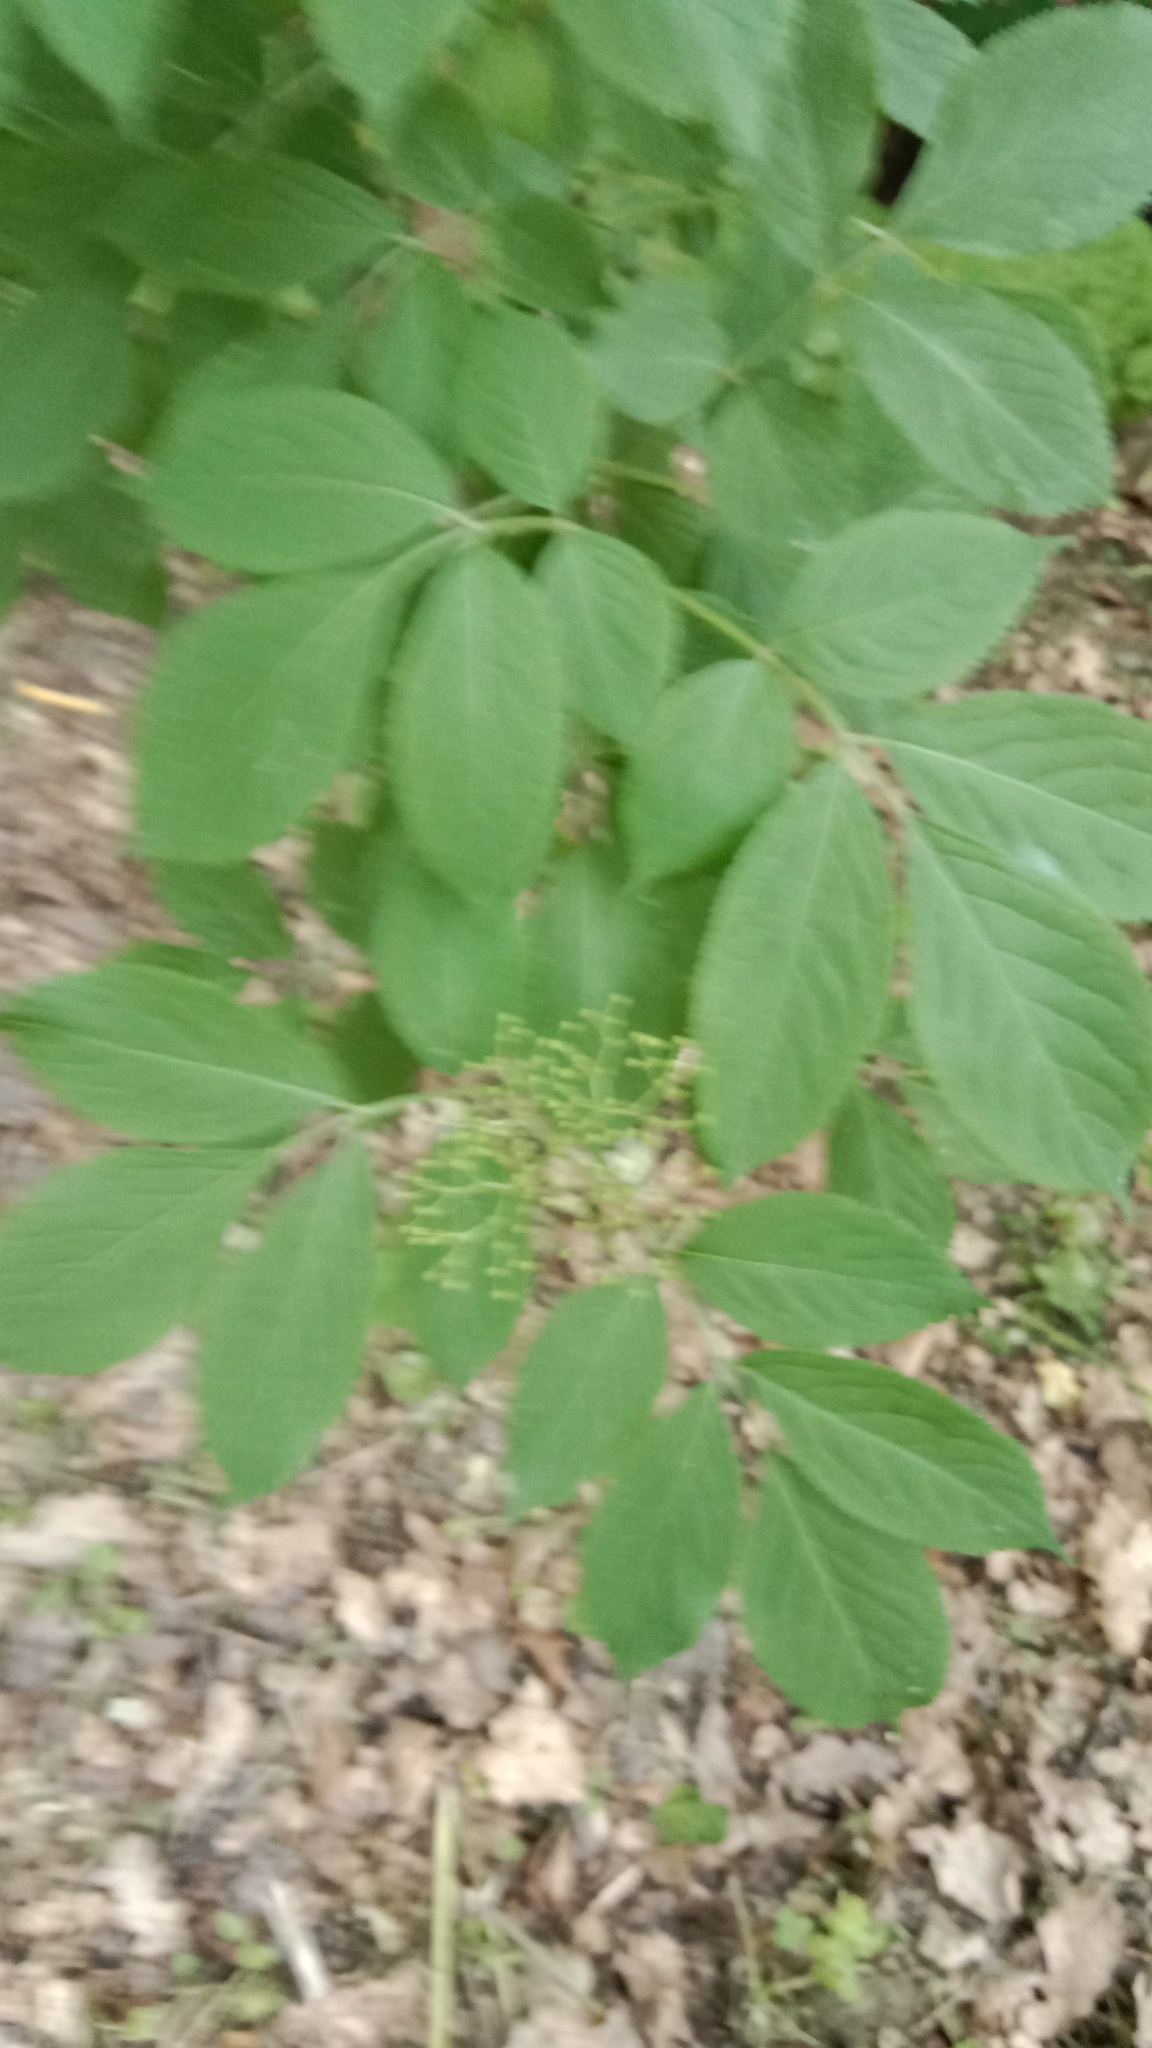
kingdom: Plantae
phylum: Tracheophyta
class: Magnoliopsida
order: Dipsacales
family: Viburnaceae
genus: Sambucus
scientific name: Sambucus nigra
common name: Elder
